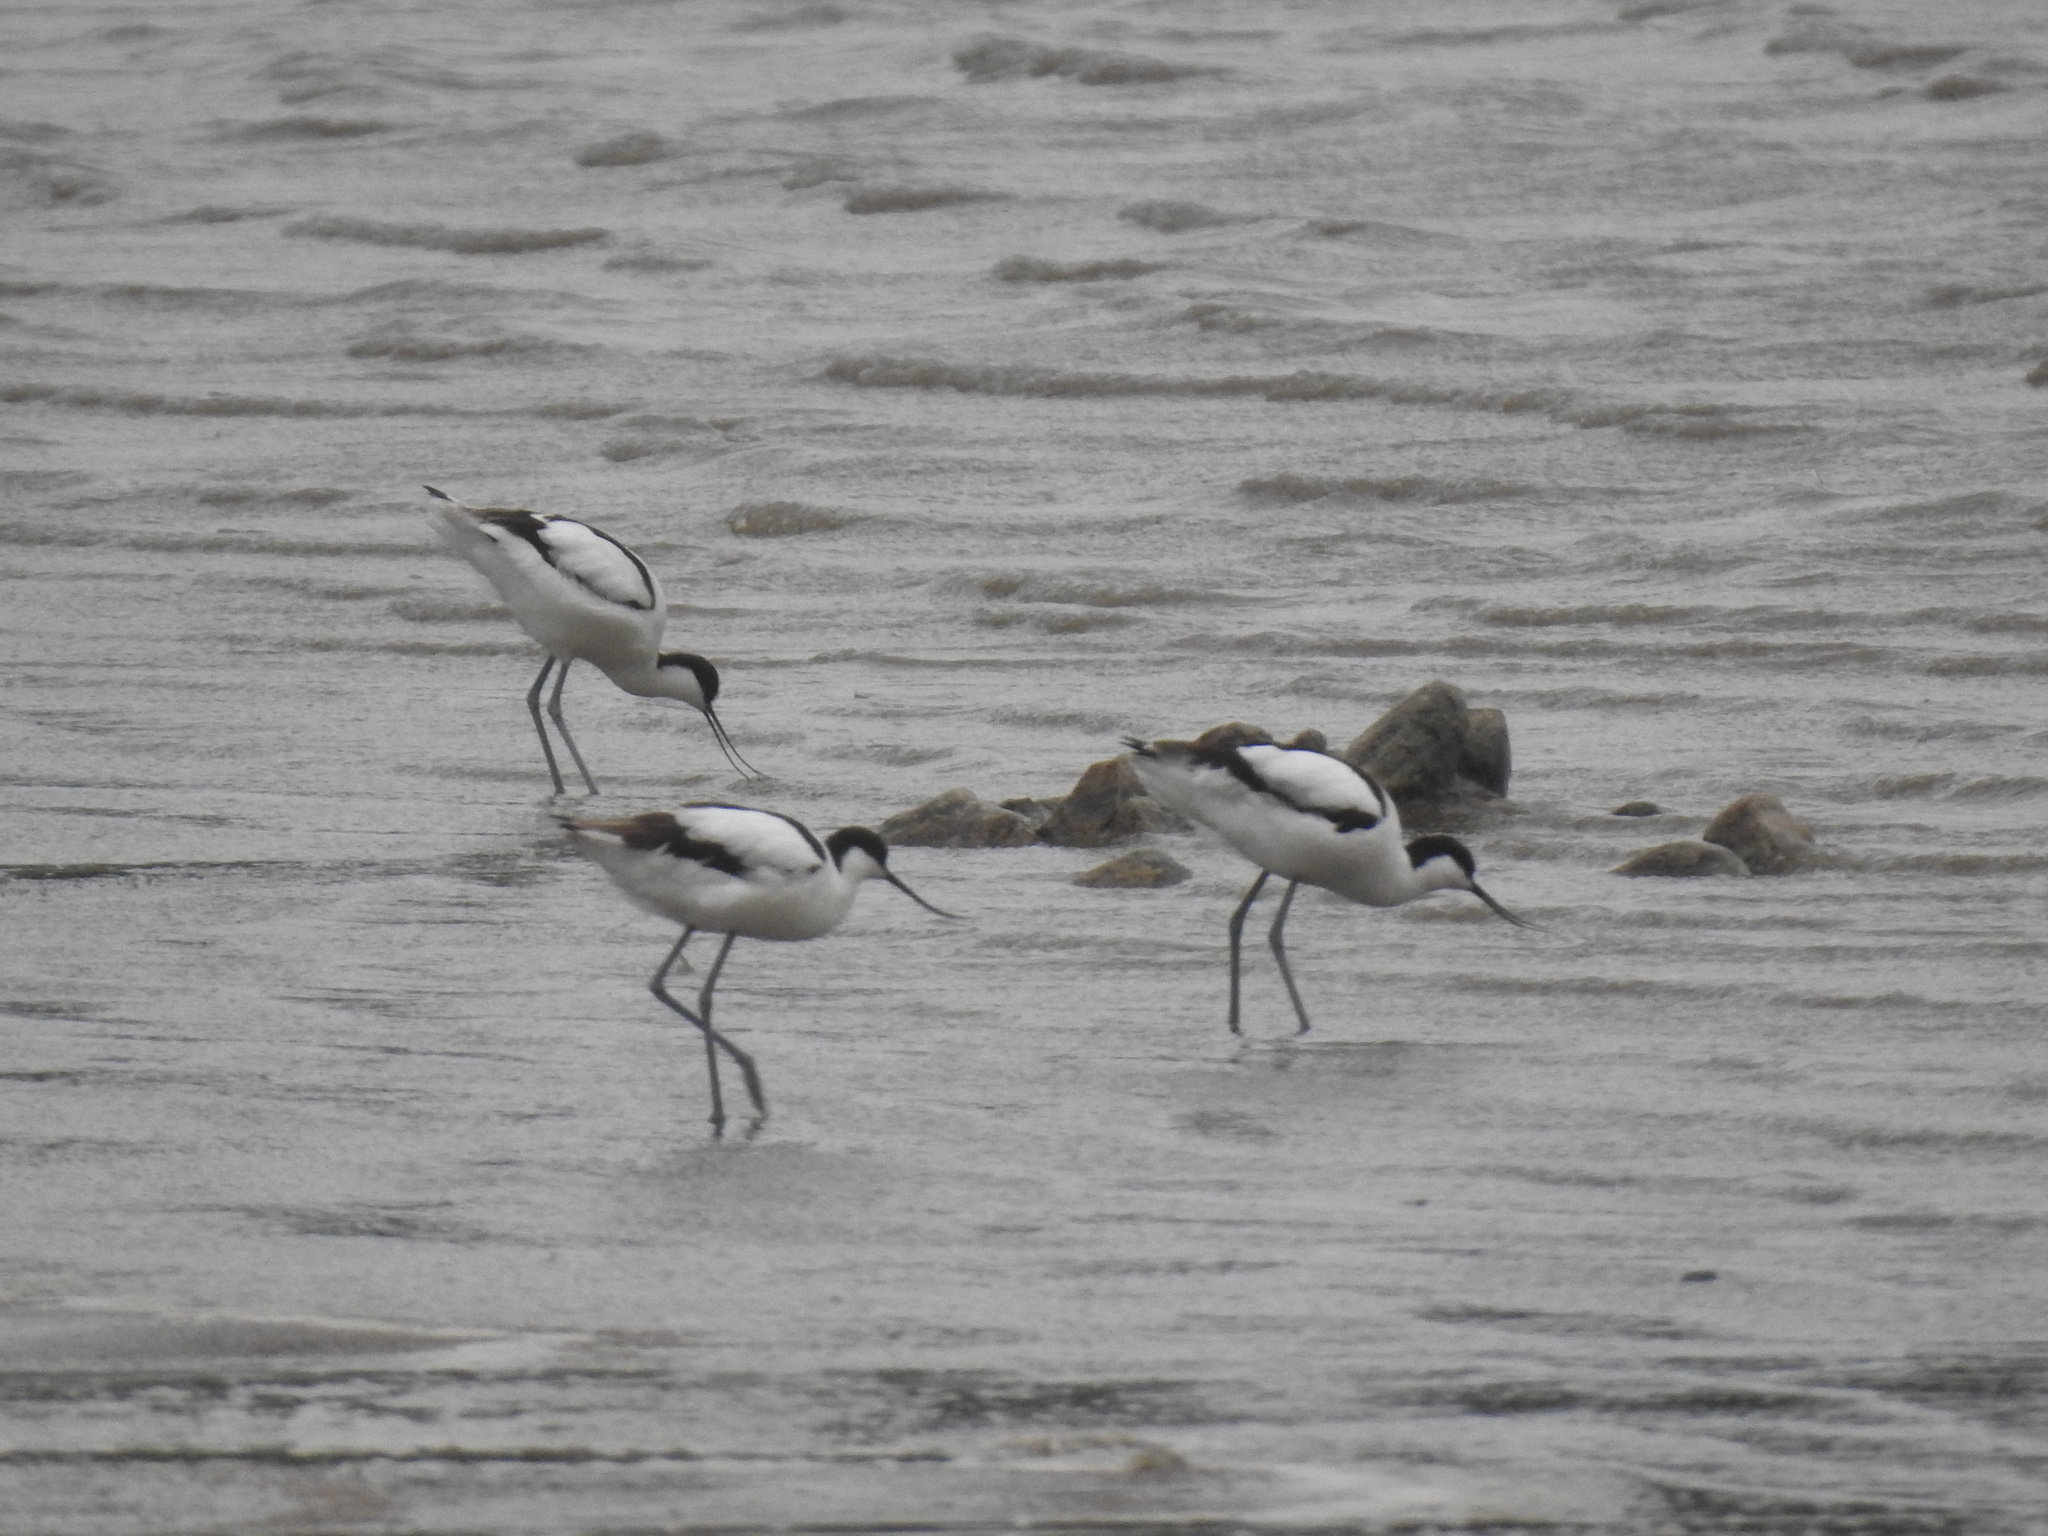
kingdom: Animalia
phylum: Chordata
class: Aves
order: Charadriiformes
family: Recurvirostridae
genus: Recurvirostra
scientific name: Recurvirostra avosetta
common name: Pied avocet
